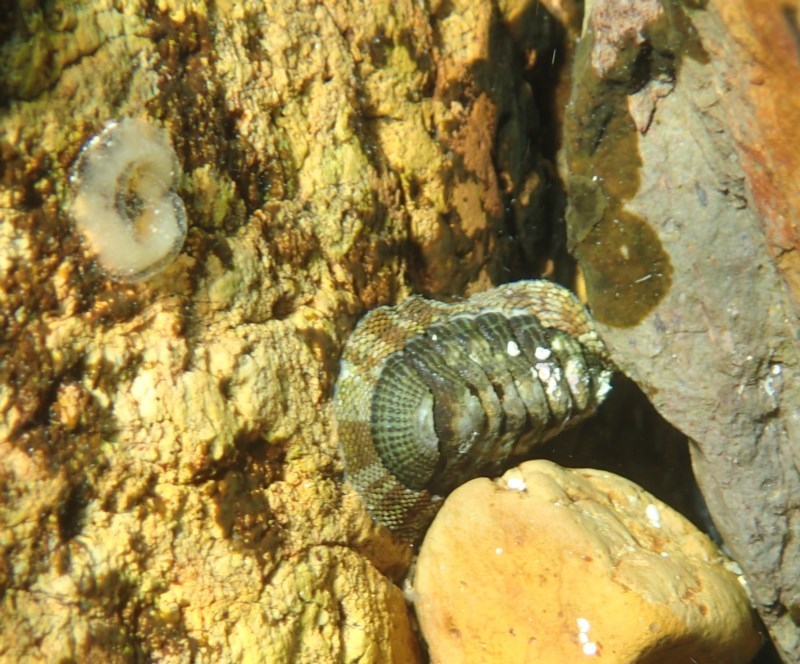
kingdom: Animalia
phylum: Mollusca
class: Polyplacophora
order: Chitonida
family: Chitonidae
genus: Sypharochiton
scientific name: Sypharochiton pelliserpentis
